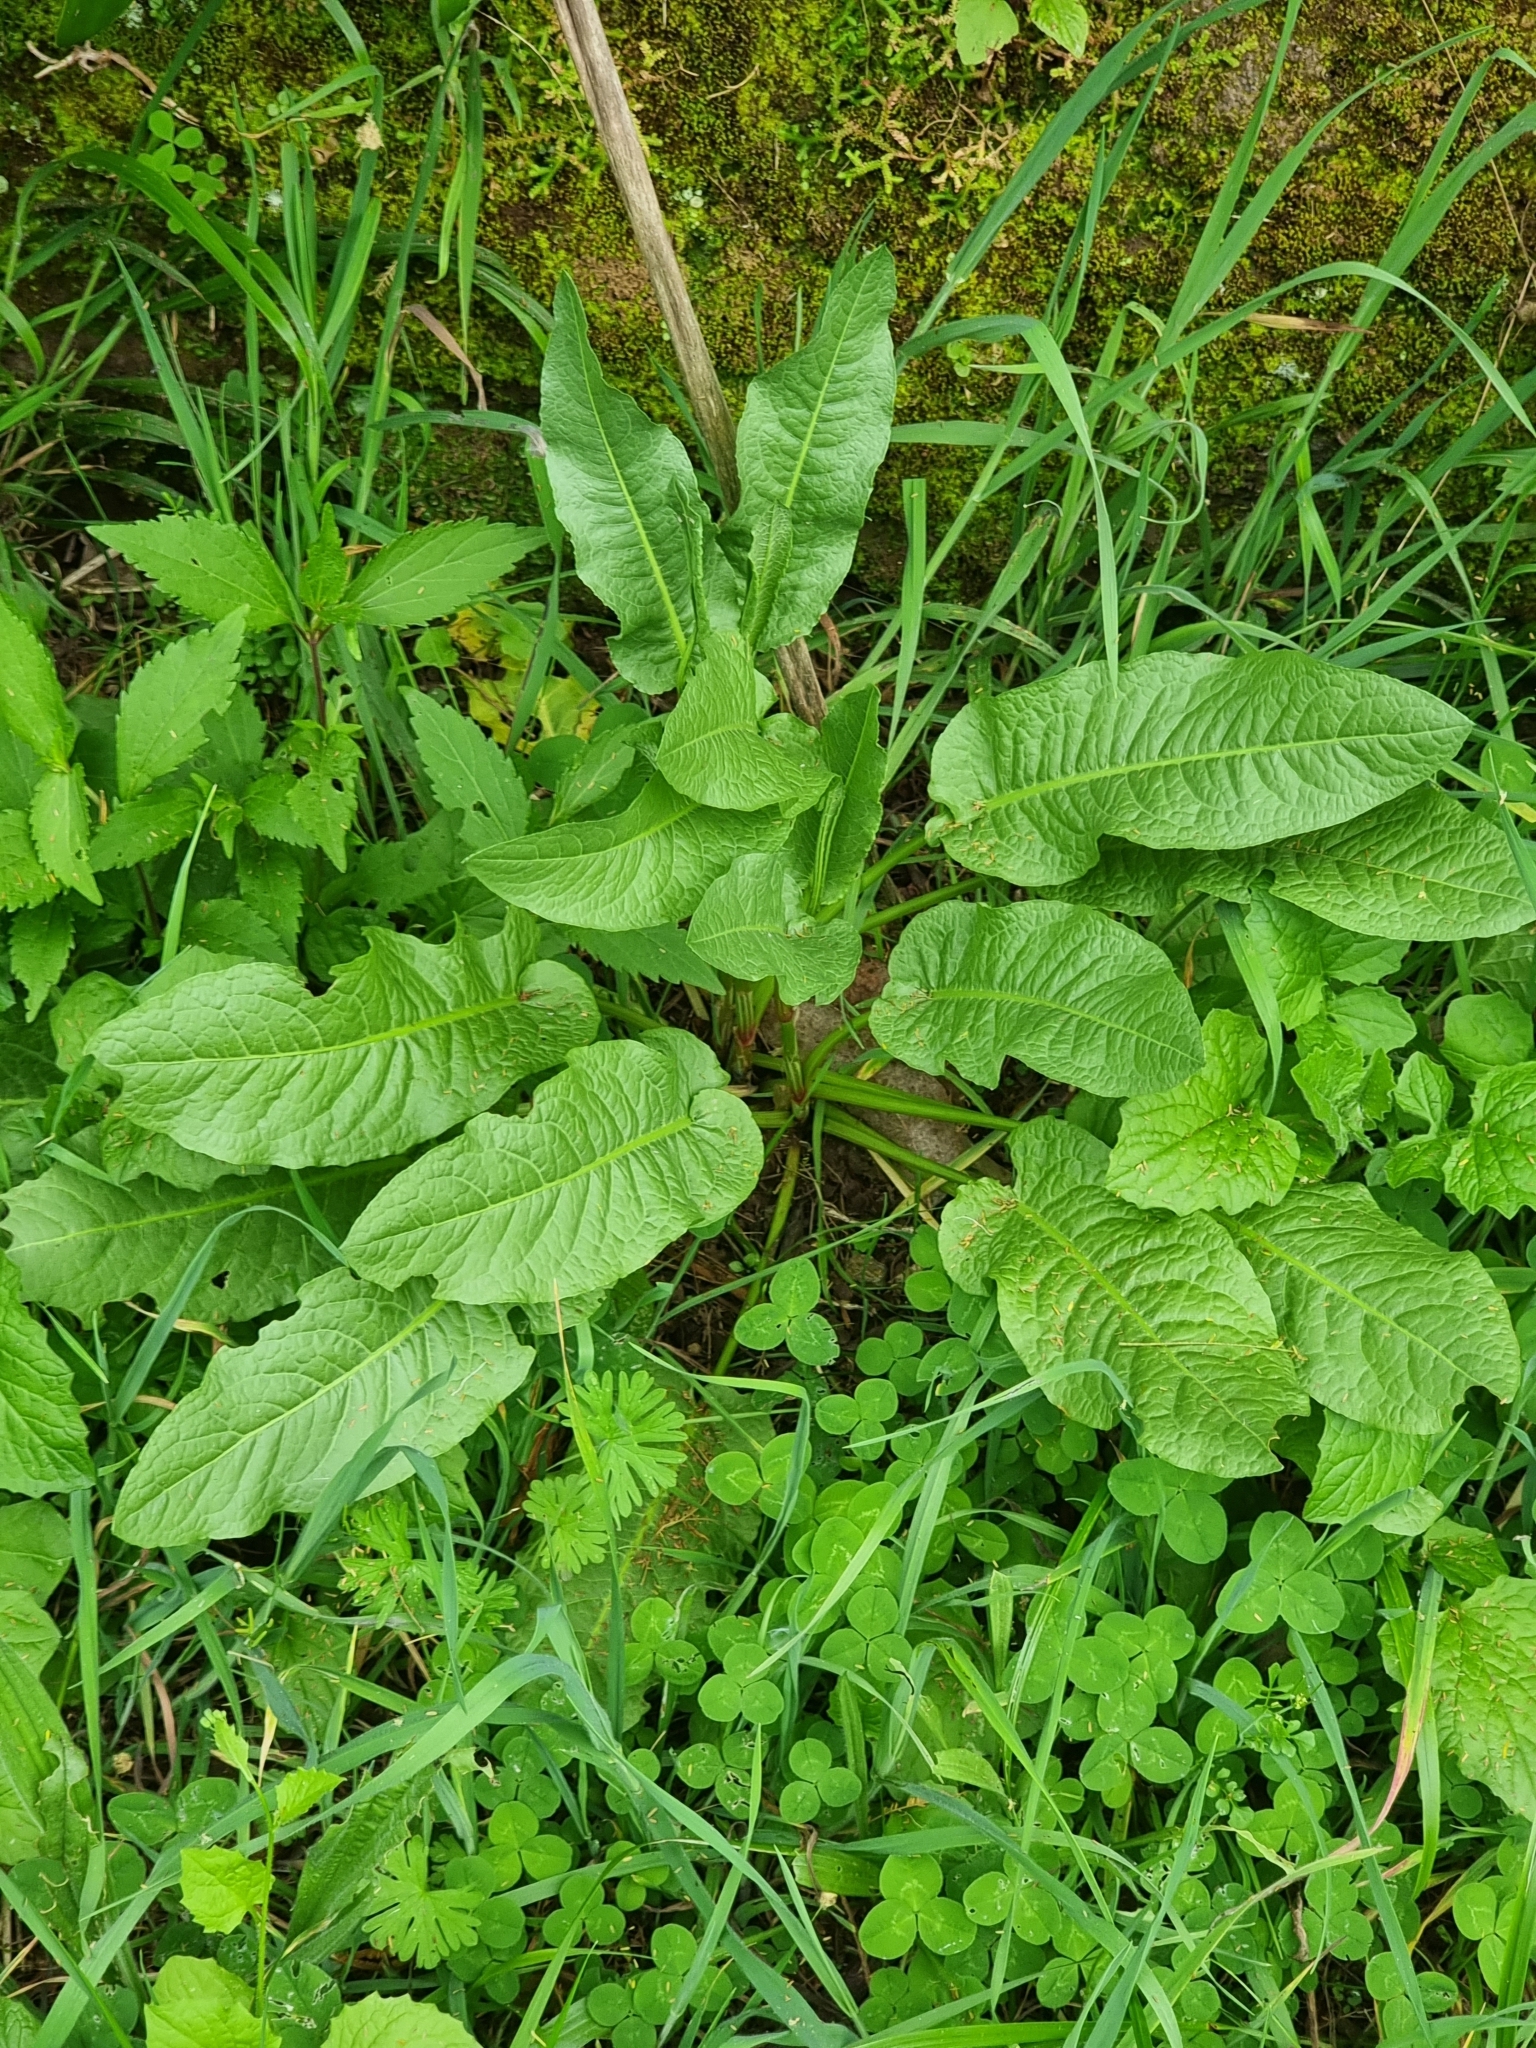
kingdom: Plantae
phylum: Tracheophyta
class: Magnoliopsida
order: Caryophyllales
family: Polygonaceae
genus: Rumex
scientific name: Rumex obtusifolius
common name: Bitter dock
